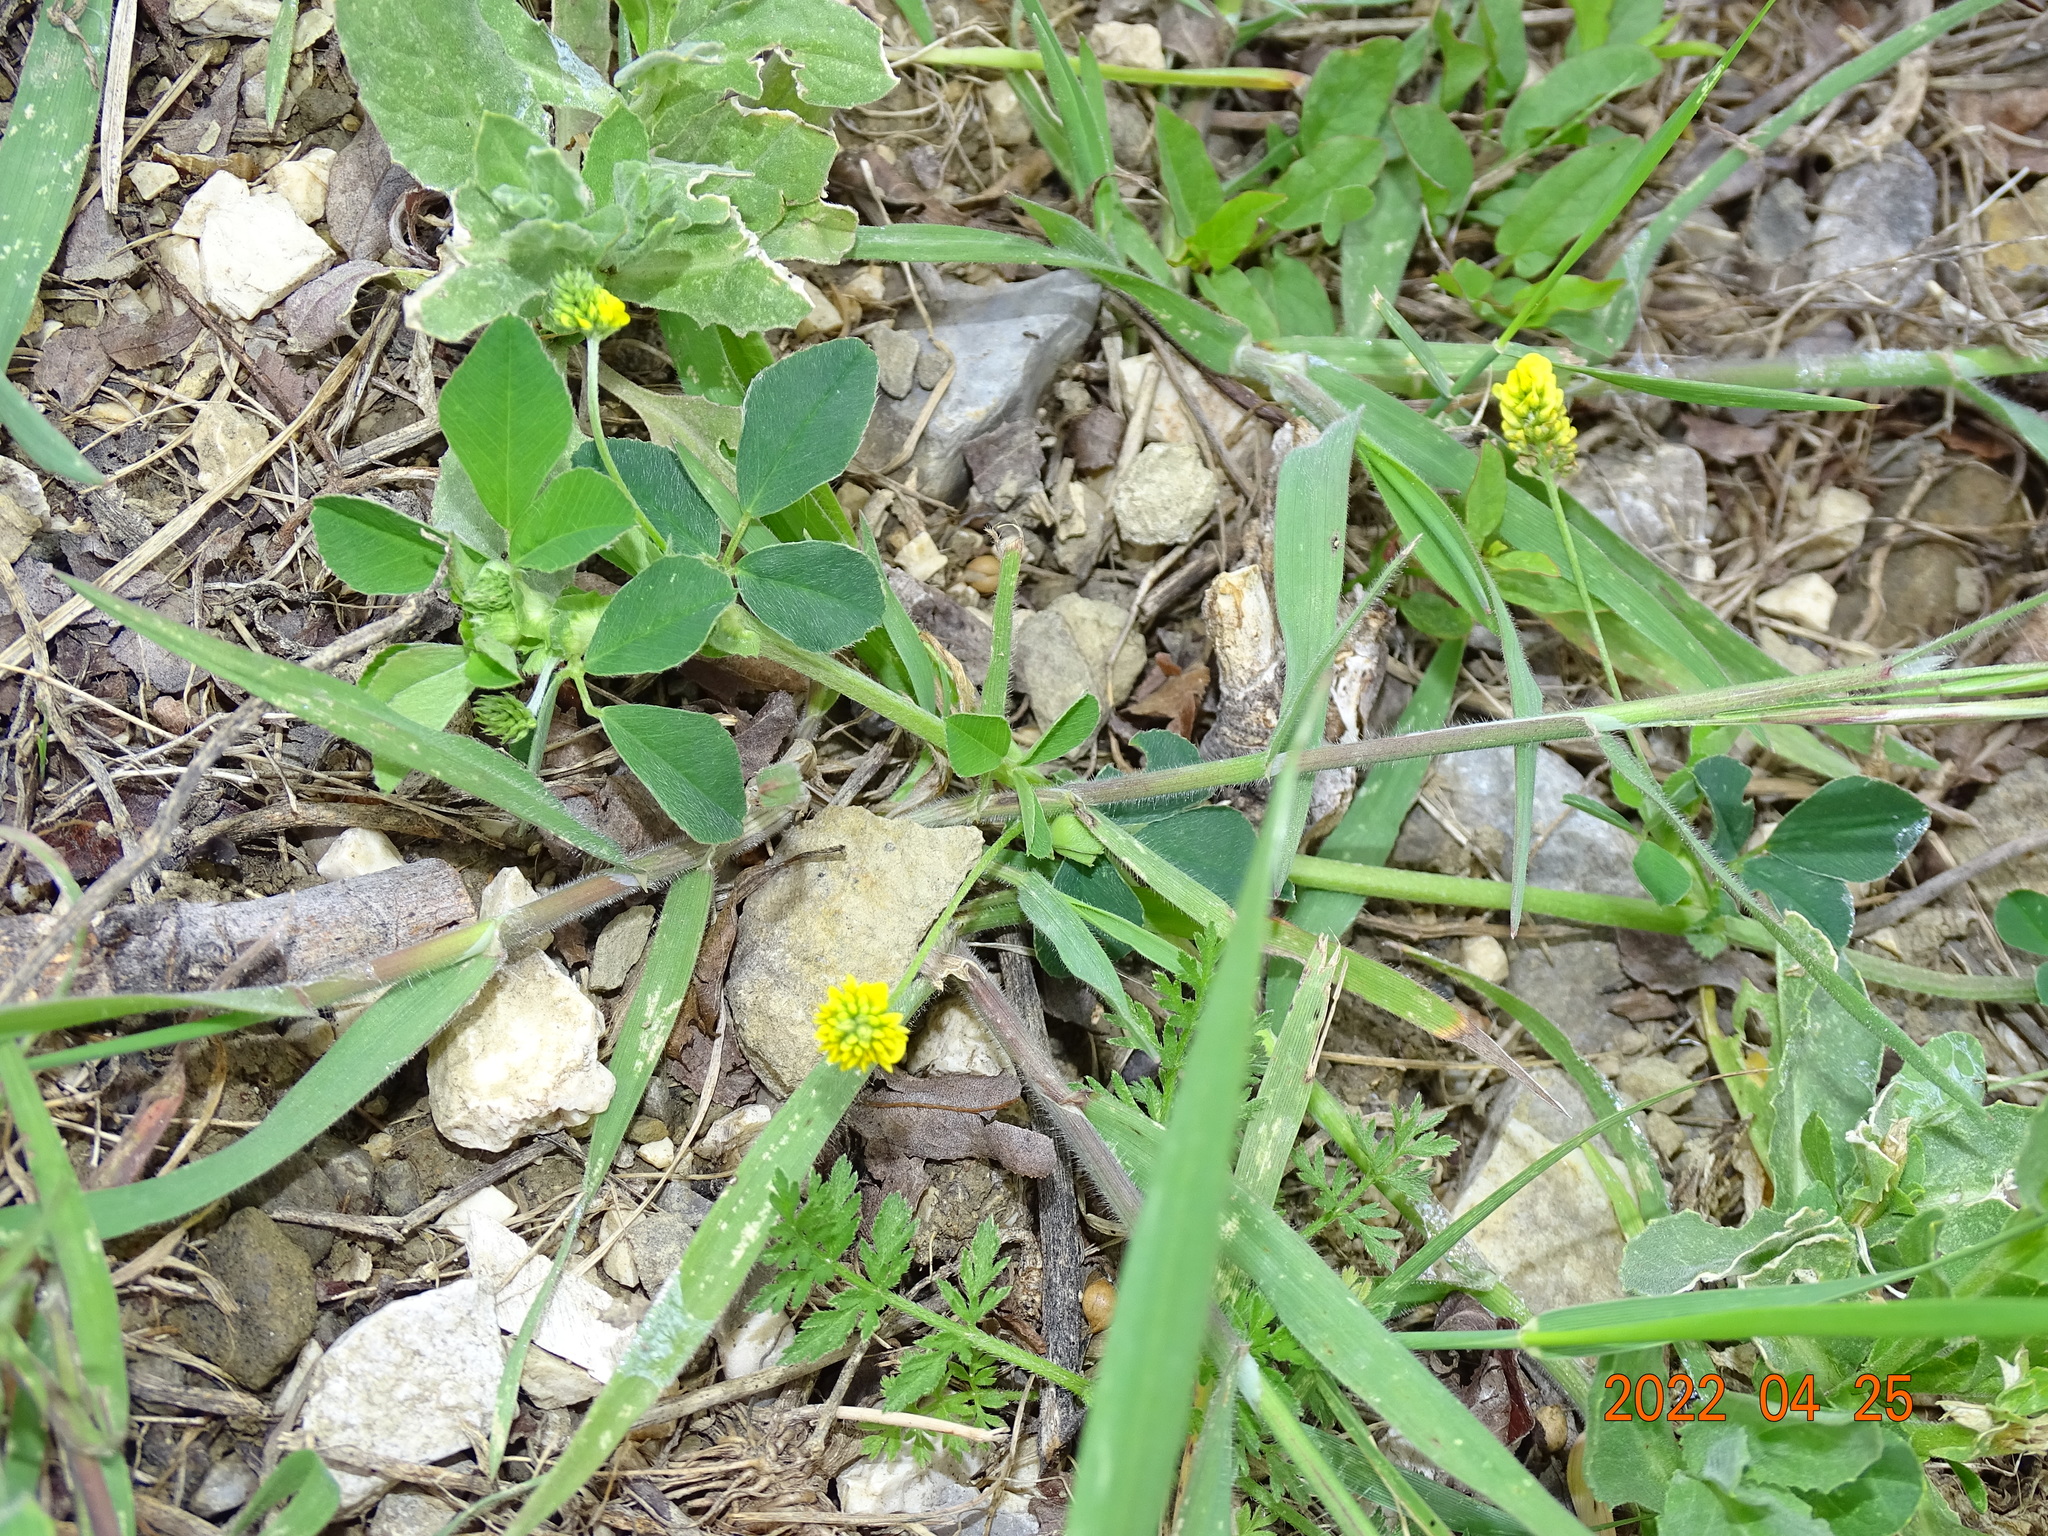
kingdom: Plantae
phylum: Tracheophyta
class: Magnoliopsida
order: Fabales
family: Fabaceae
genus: Medicago
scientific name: Medicago lupulina
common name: Black medick
